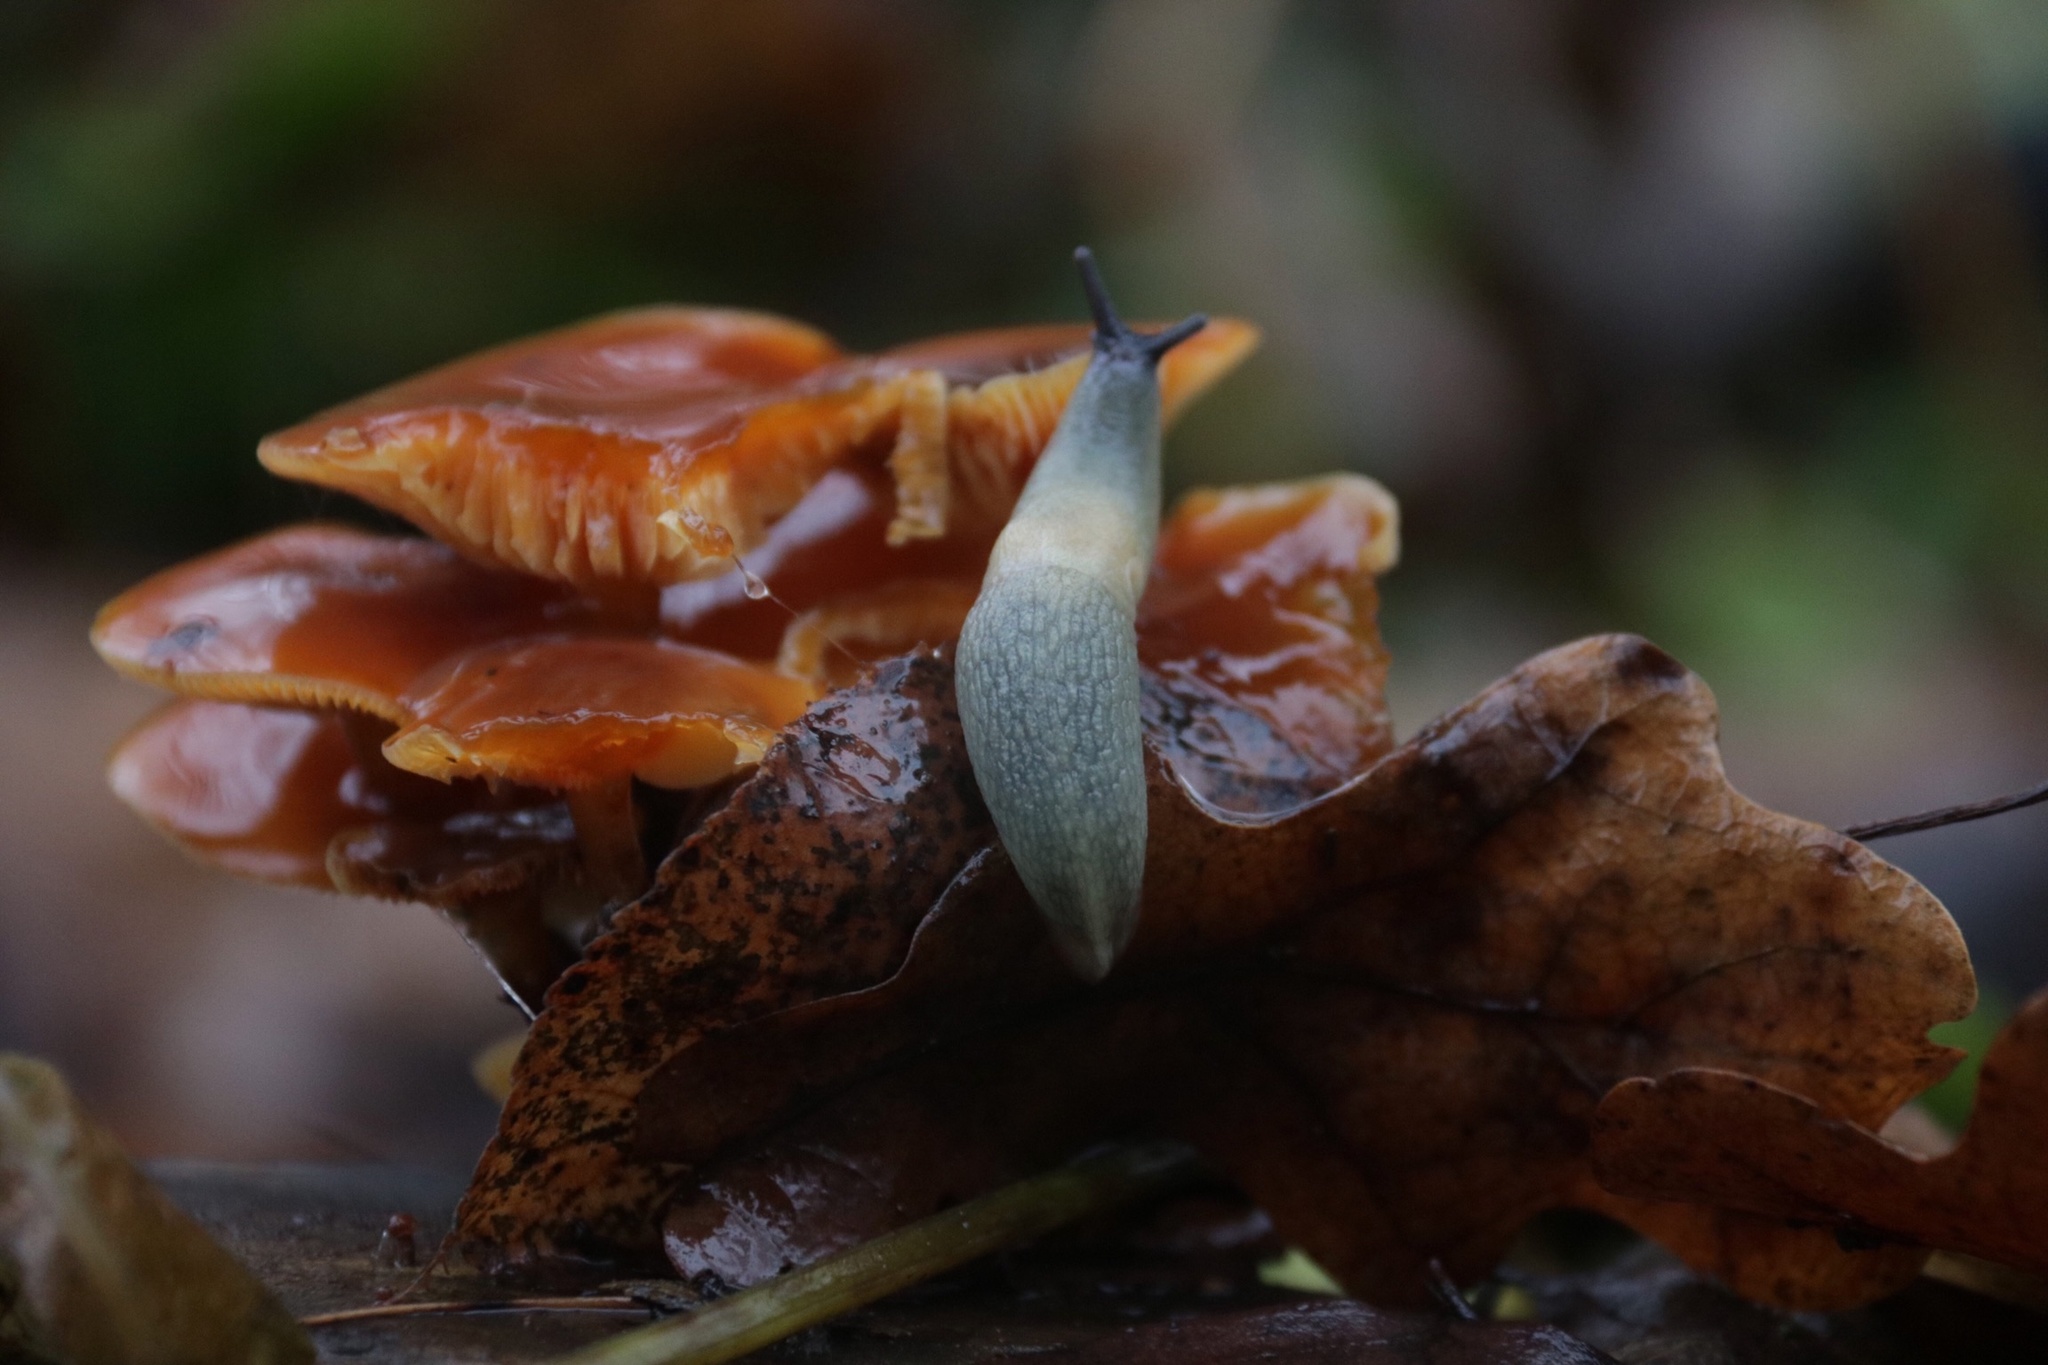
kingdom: Animalia
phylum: Mollusca
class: Gastropoda
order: Stylommatophora
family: Agriolimacidae
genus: Krynickillus
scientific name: Krynickillus melanocephalus
